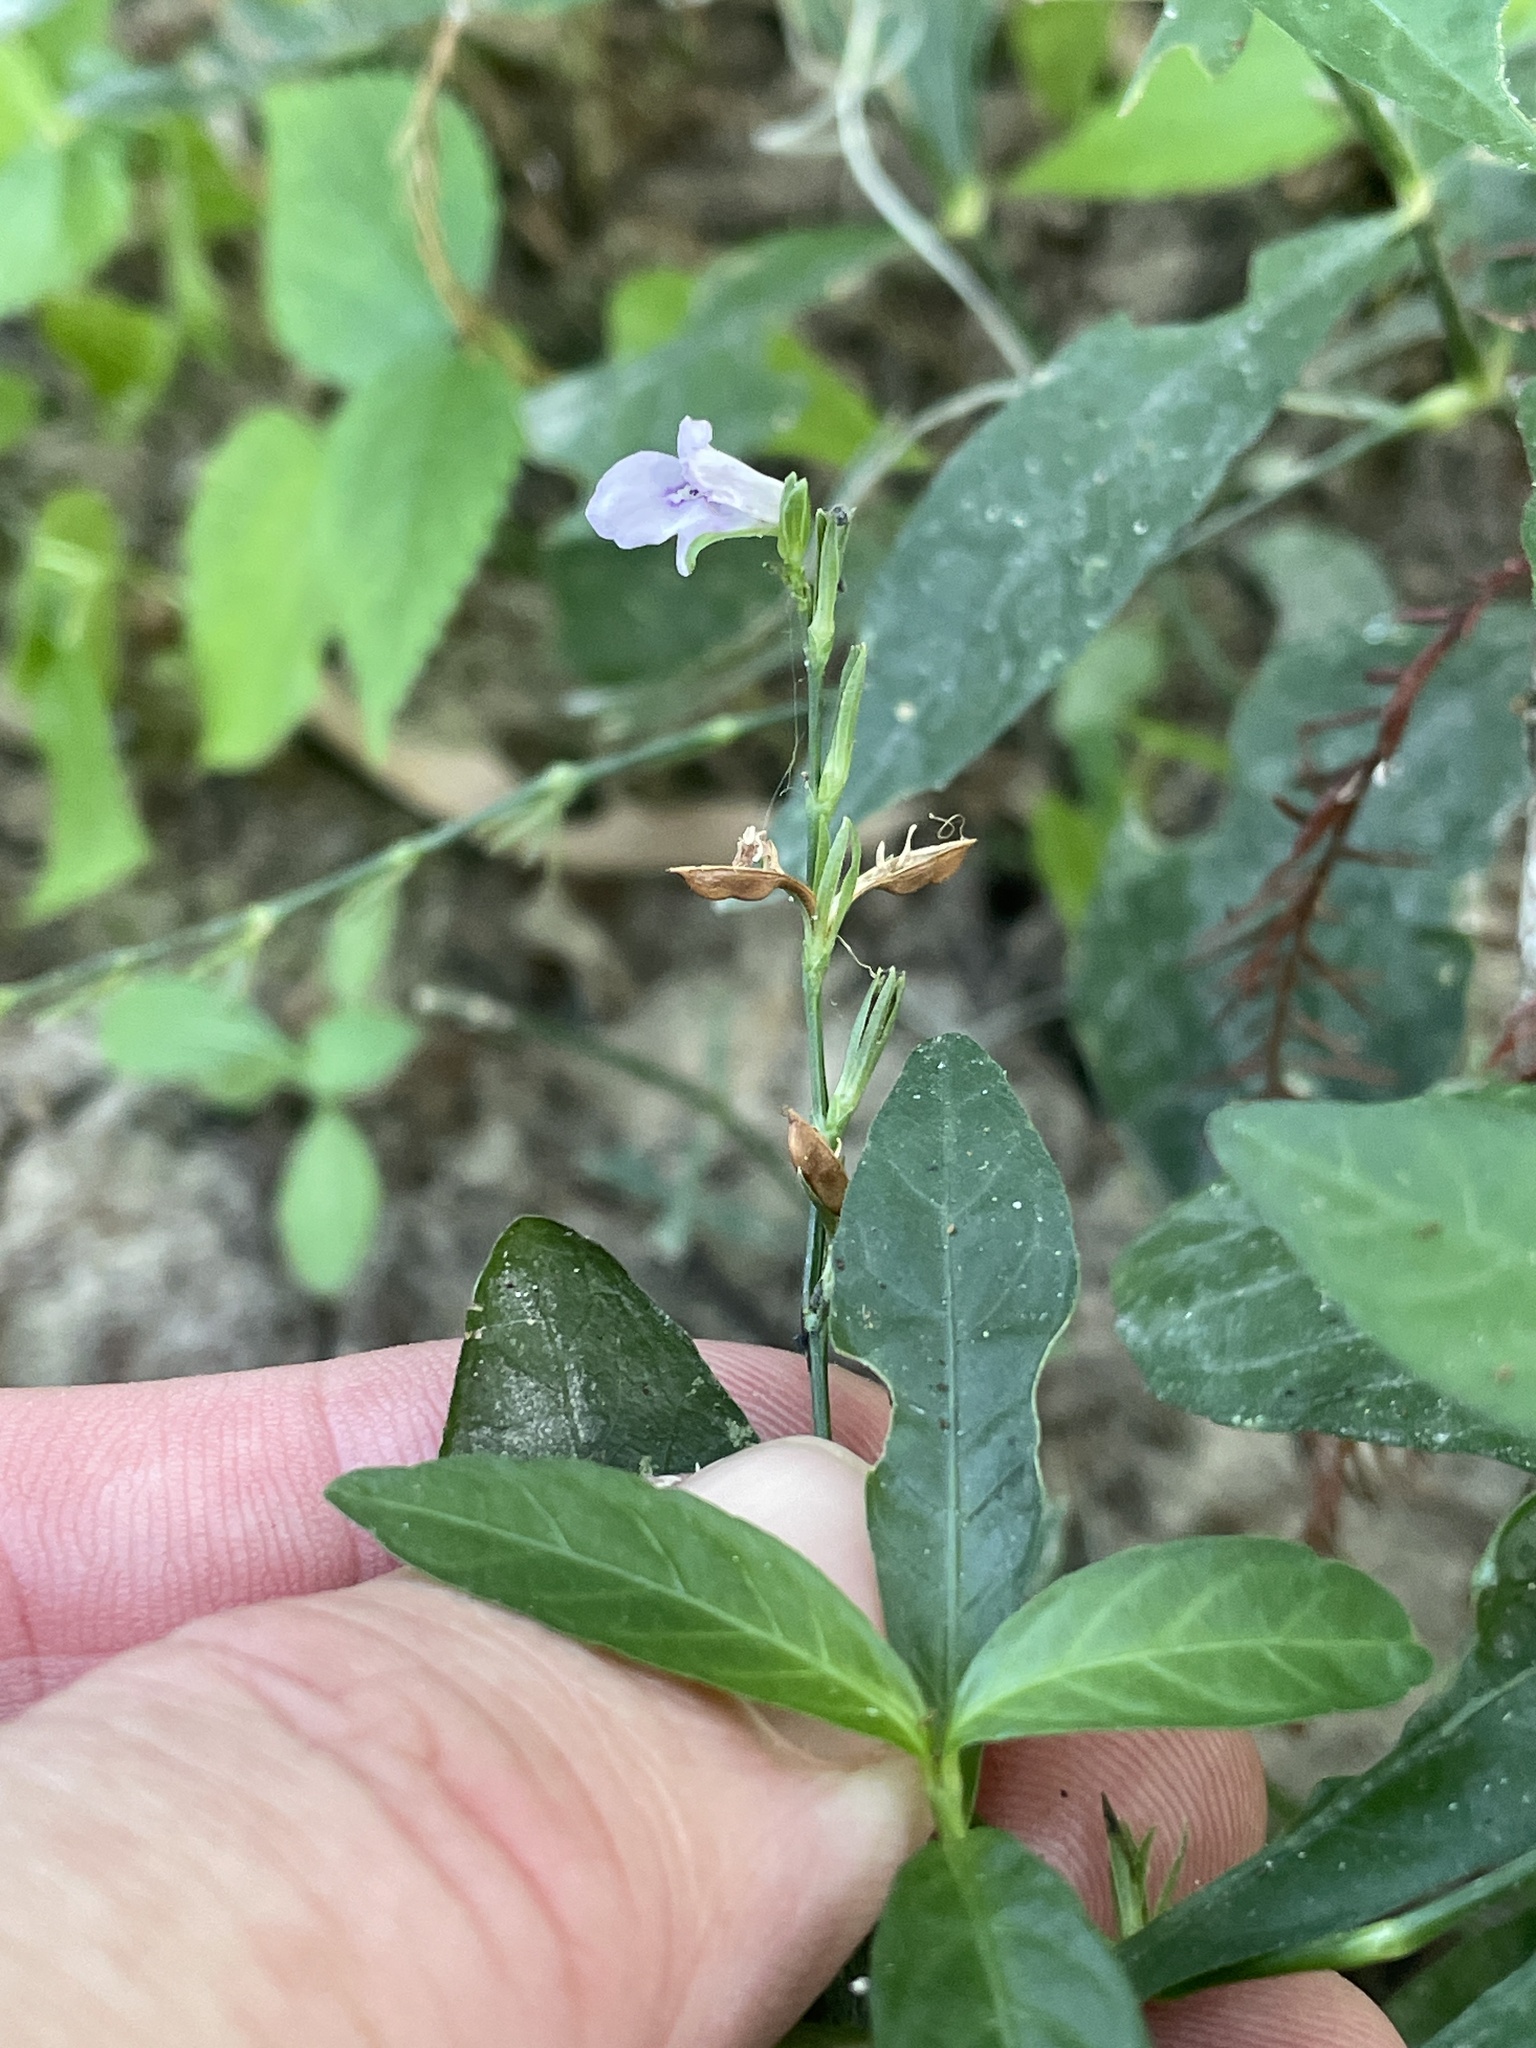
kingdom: Plantae
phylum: Tracheophyta
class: Magnoliopsida
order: Lamiales
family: Acanthaceae
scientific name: Acanthaceae
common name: Acanthaceae
